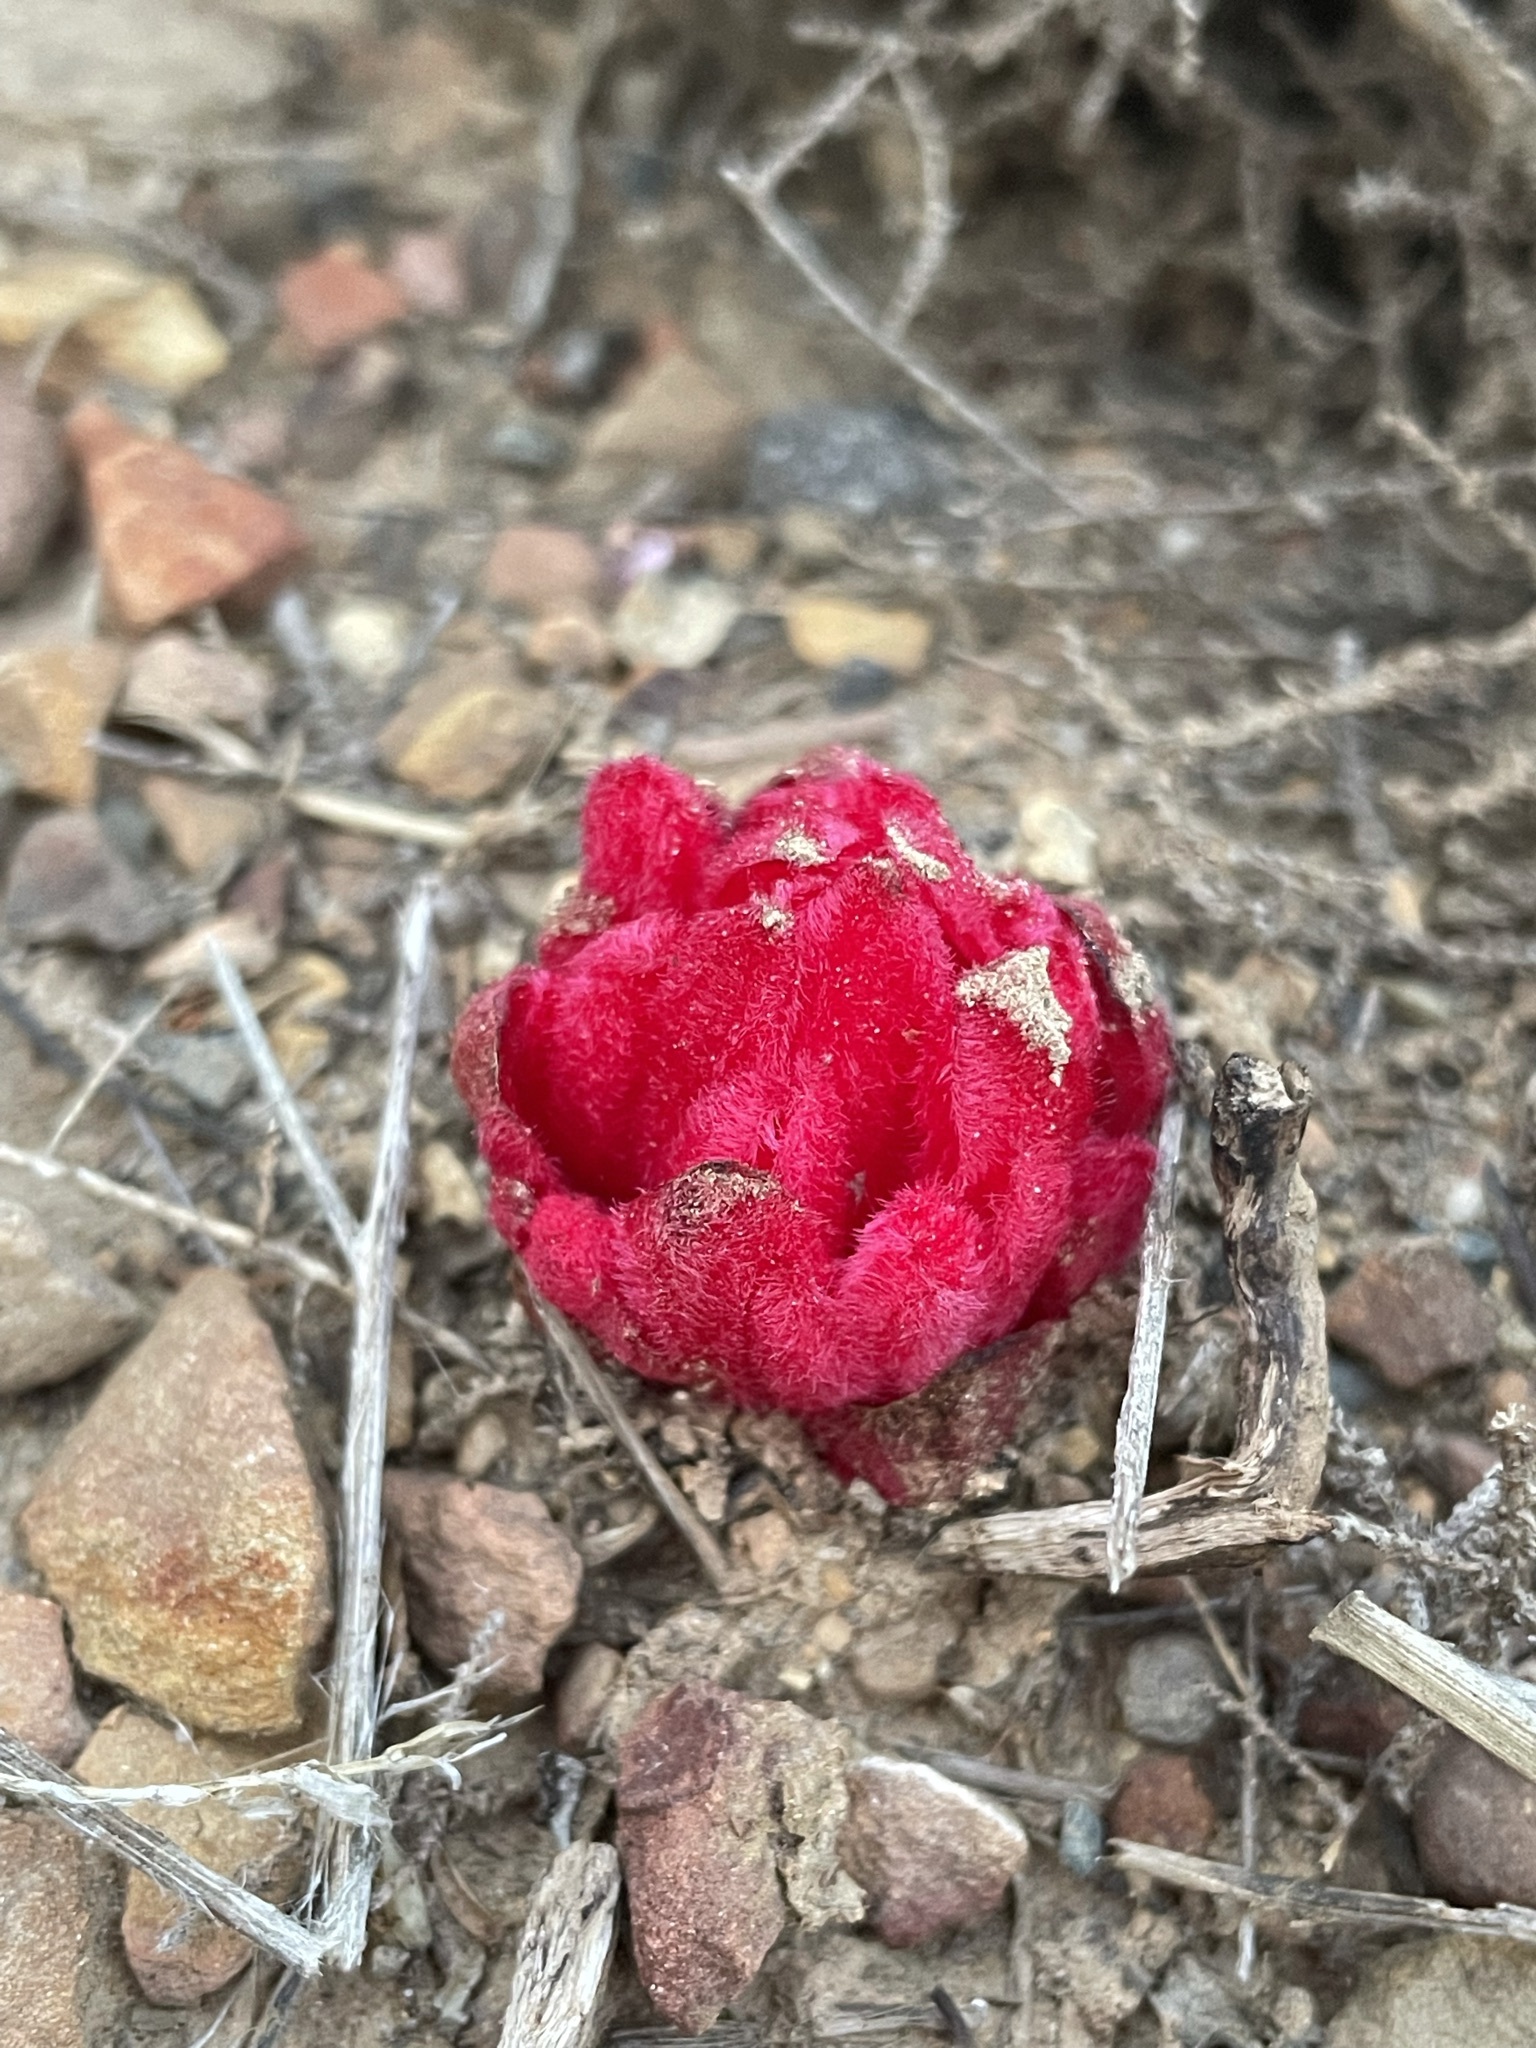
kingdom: Plantae
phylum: Tracheophyta
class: Magnoliopsida
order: Malvales
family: Cytinaceae
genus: Cytinus
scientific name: Cytinus sanguineus
